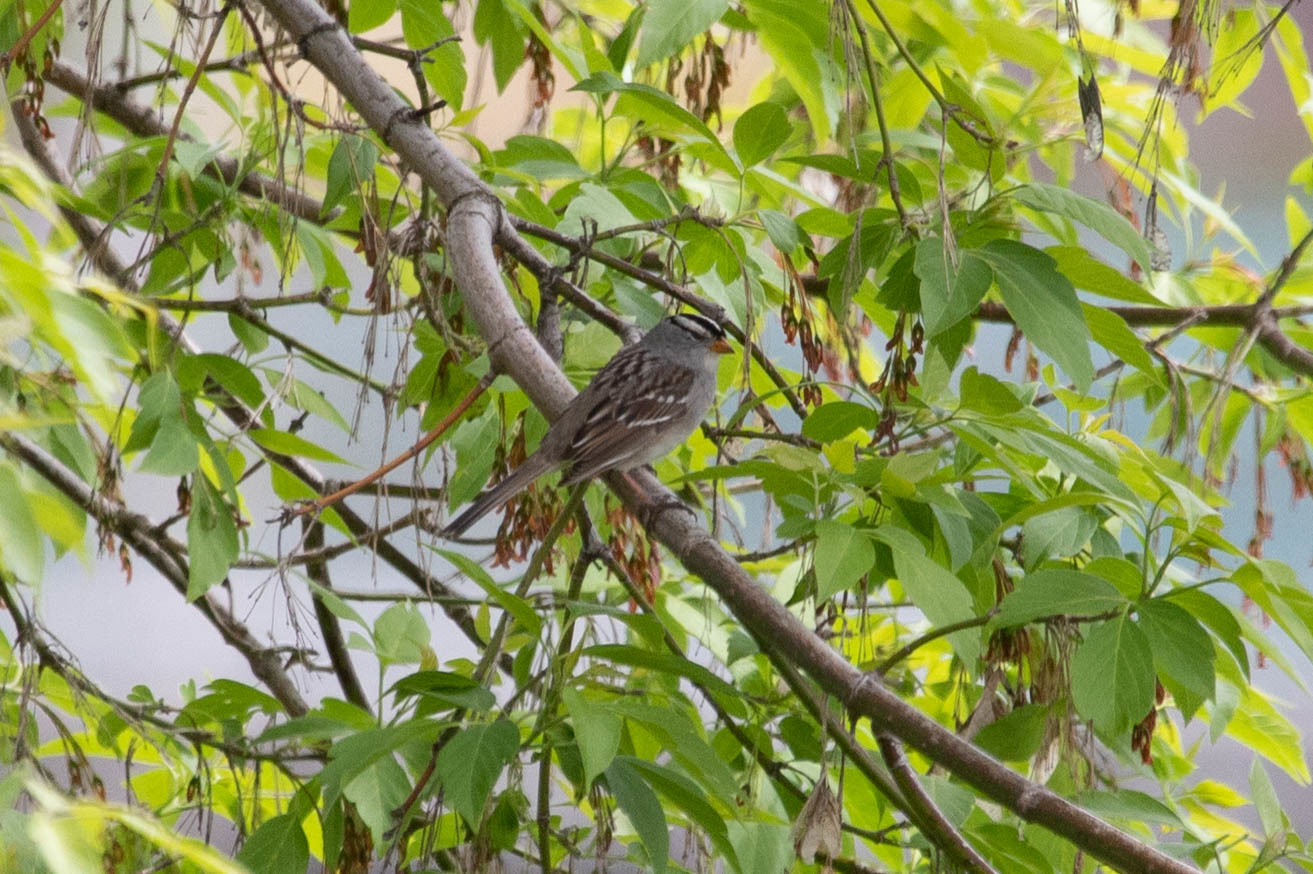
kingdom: Animalia
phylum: Chordata
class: Aves
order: Passeriformes
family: Passerellidae
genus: Zonotrichia
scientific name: Zonotrichia leucophrys
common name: White-crowned sparrow
